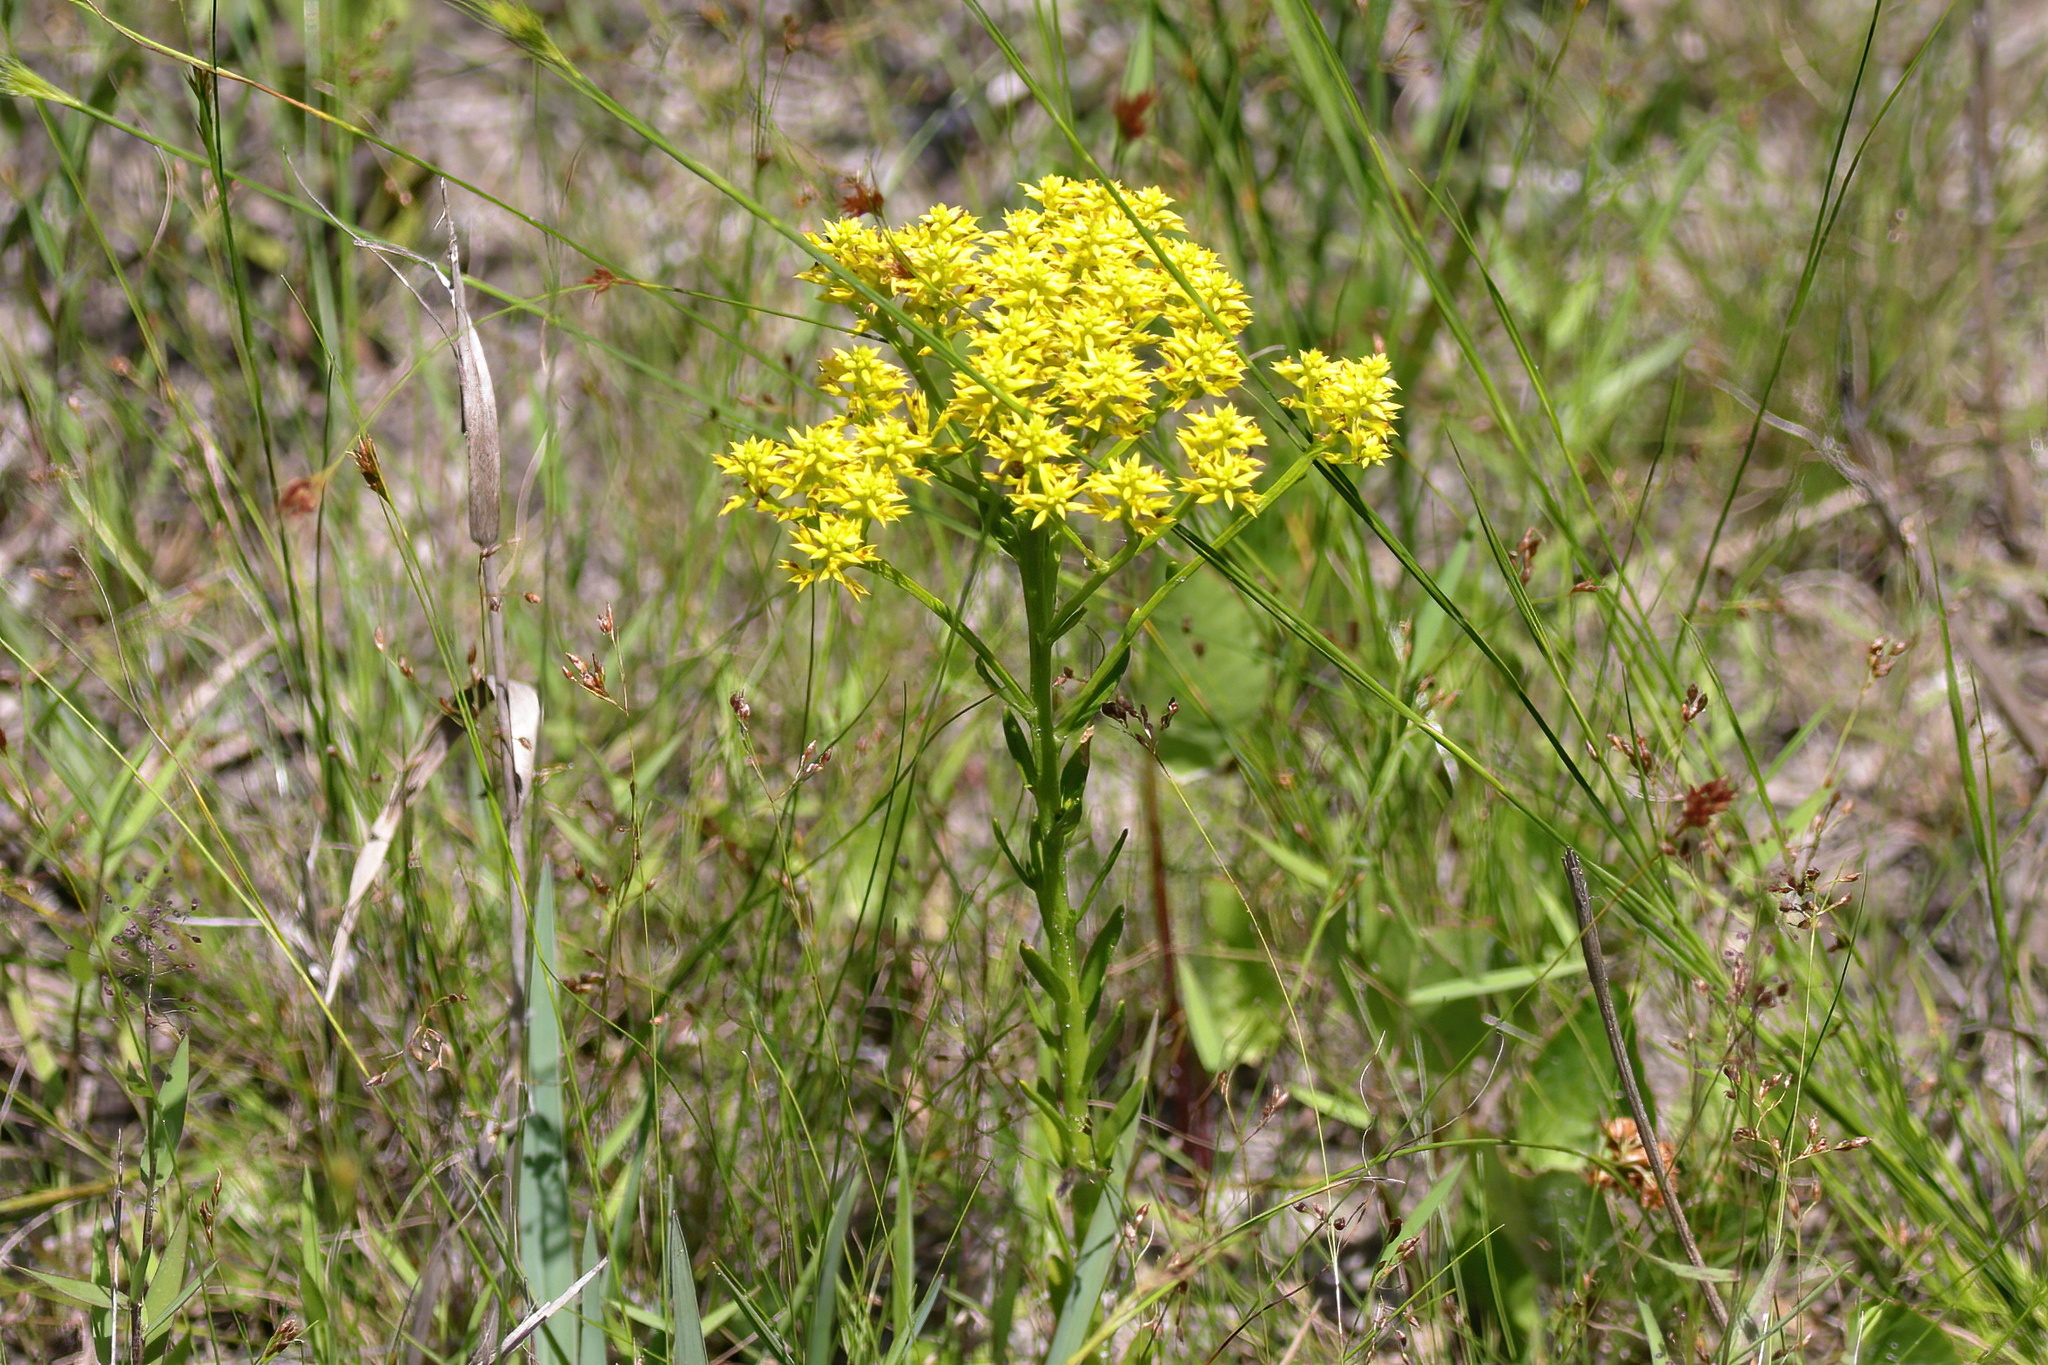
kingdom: Plantae
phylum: Tracheophyta
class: Magnoliopsida
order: Fabales
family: Polygalaceae
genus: Polygala
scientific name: Polygala ramosa
